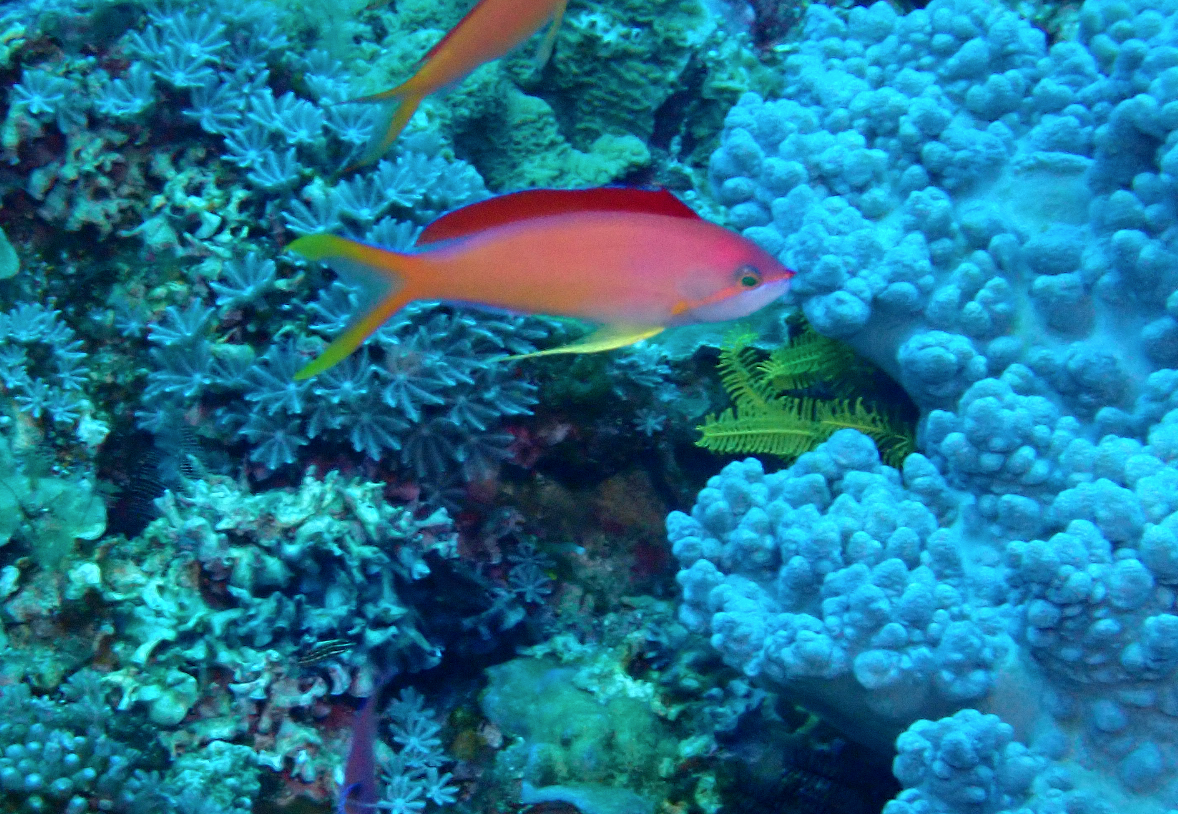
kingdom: Animalia
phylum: Chordata
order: Perciformes
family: Serranidae
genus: Nemanthias
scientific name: Nemanthias
